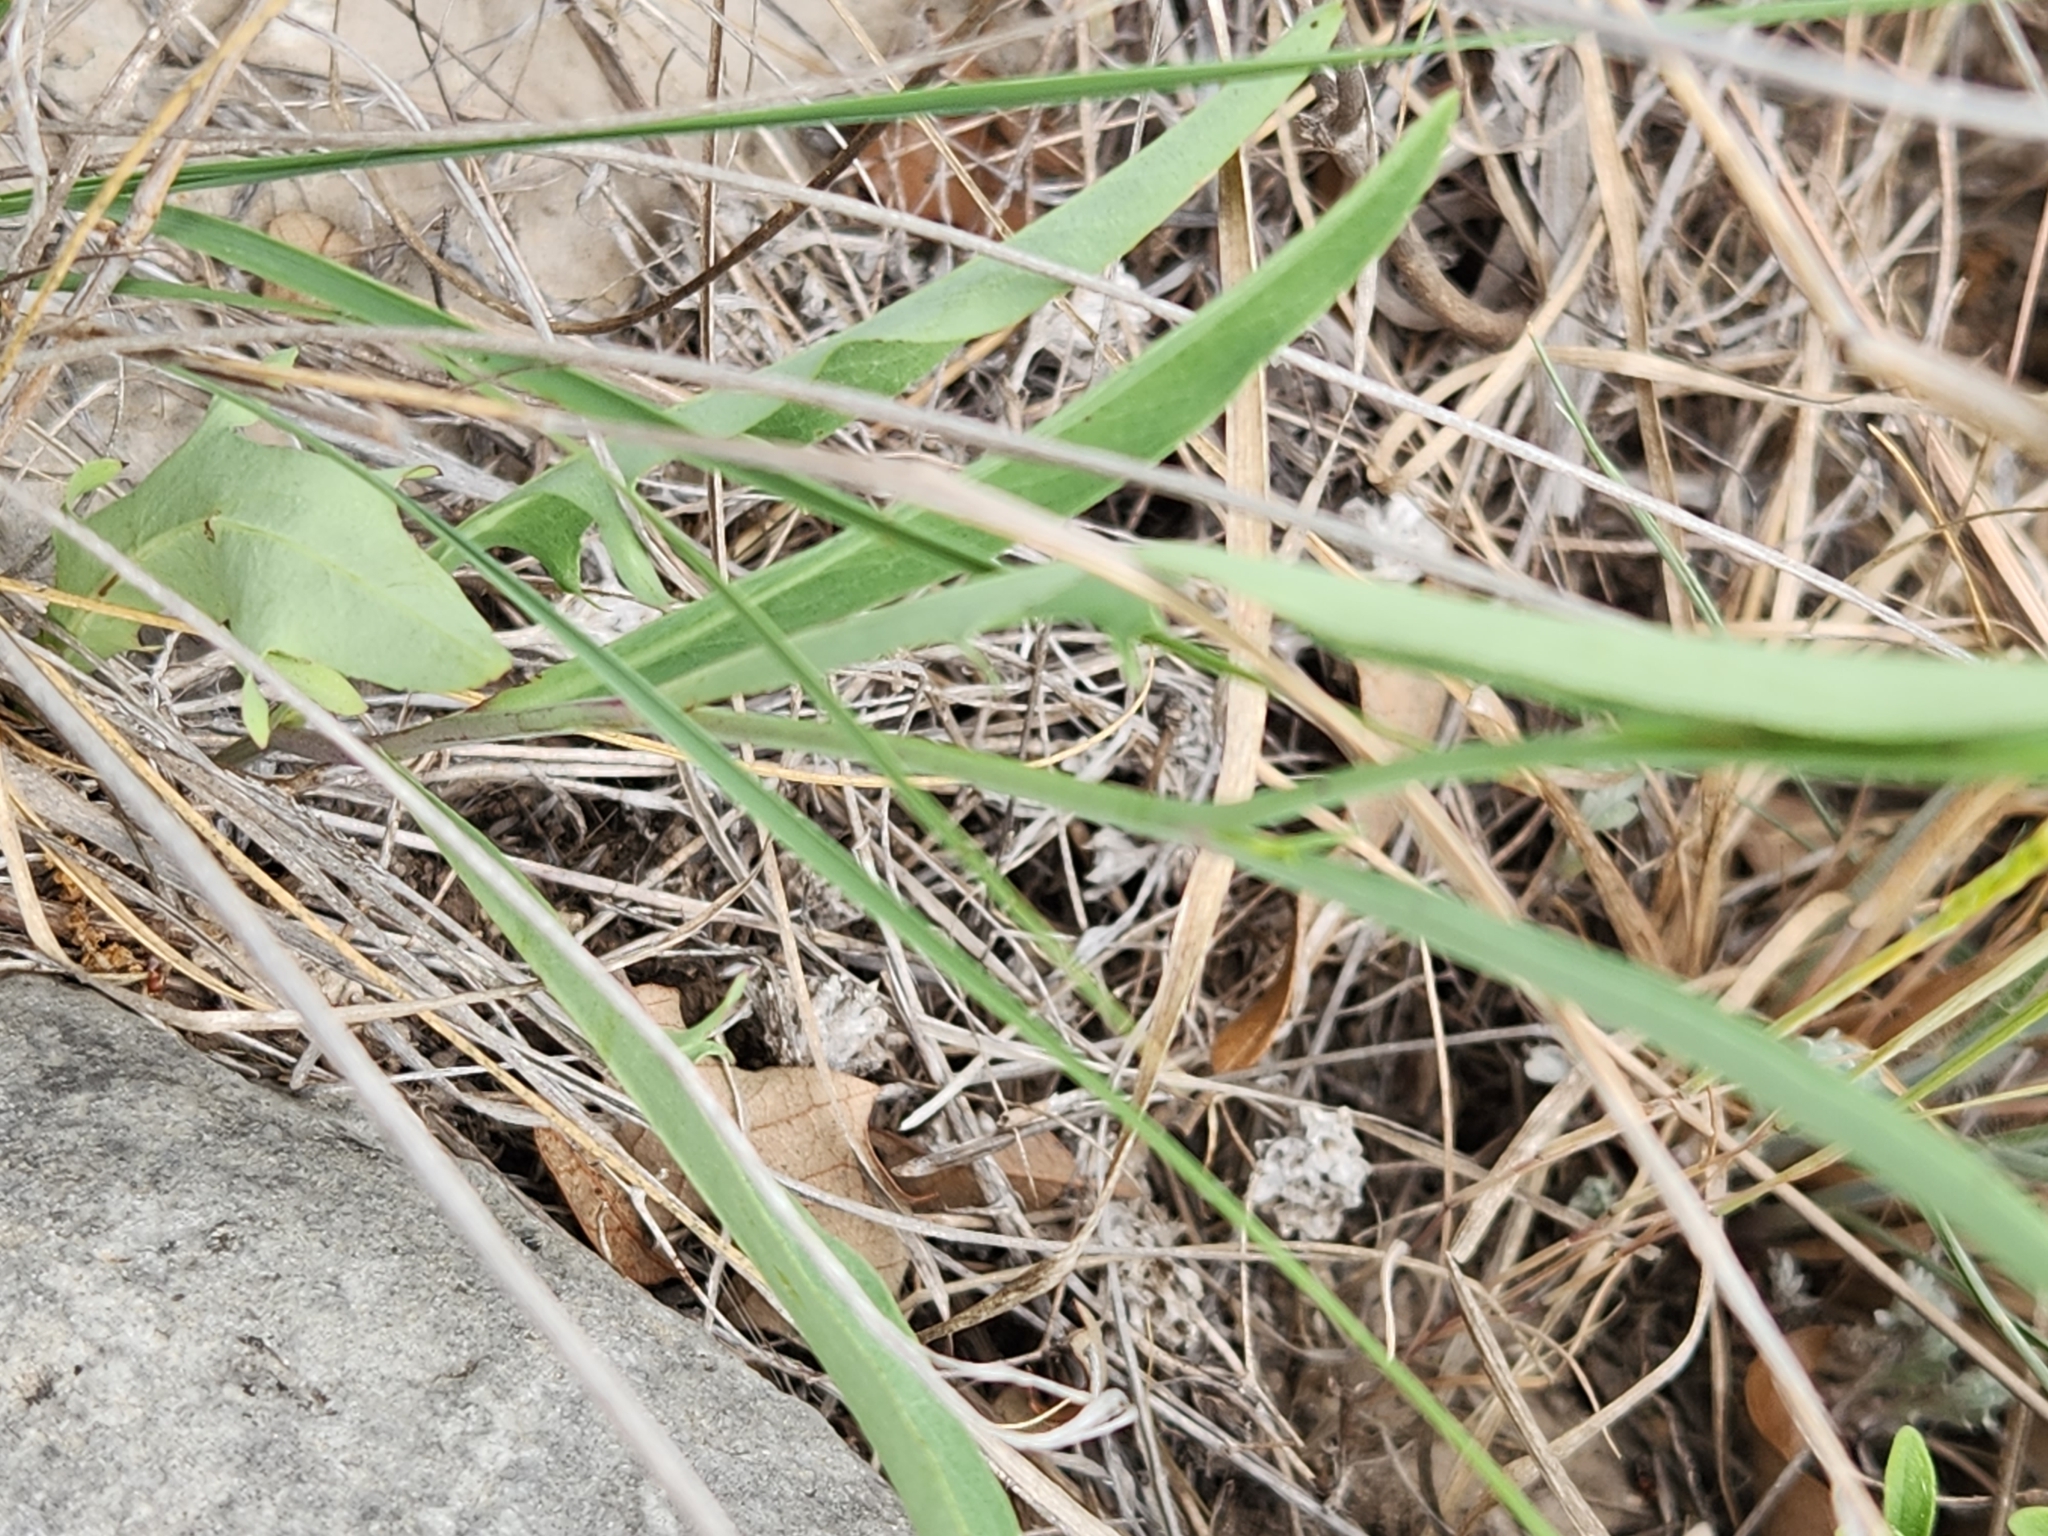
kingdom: Plantae
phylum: Tracheophyta
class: Magnoliopsida
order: Asterales
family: Asteraceae
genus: Pinaropappus
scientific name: Pinaropappus roseus
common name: Rock-lettuce
